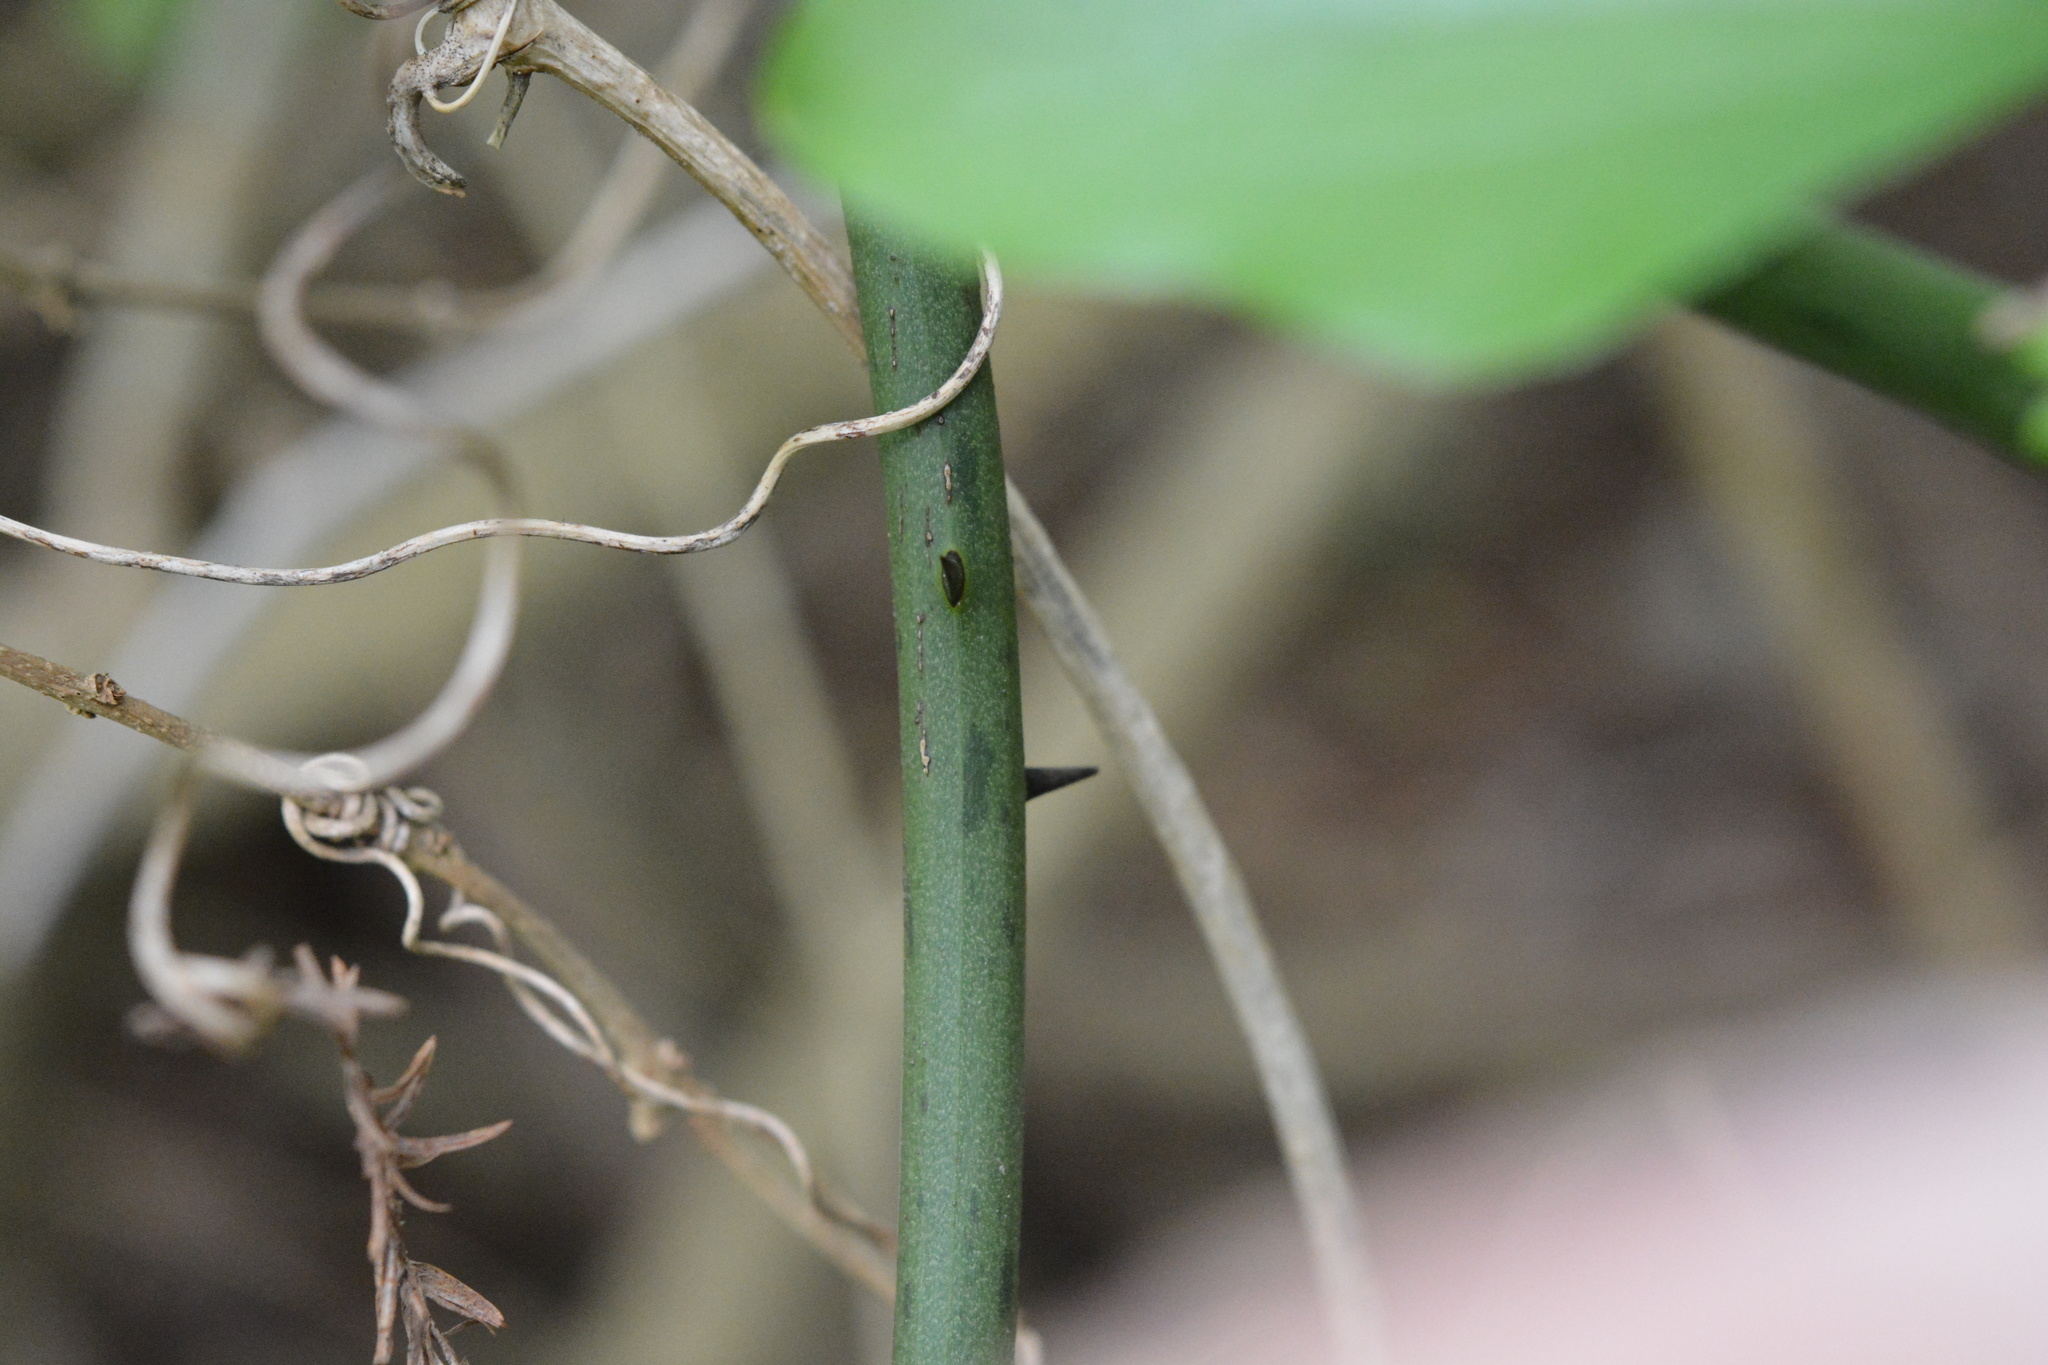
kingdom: Plantae
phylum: Tracheophyta
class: Liliopsida
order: Liliales
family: Smilacaceae
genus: Smilax
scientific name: Smilax rotundifolia
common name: Bullbriar
